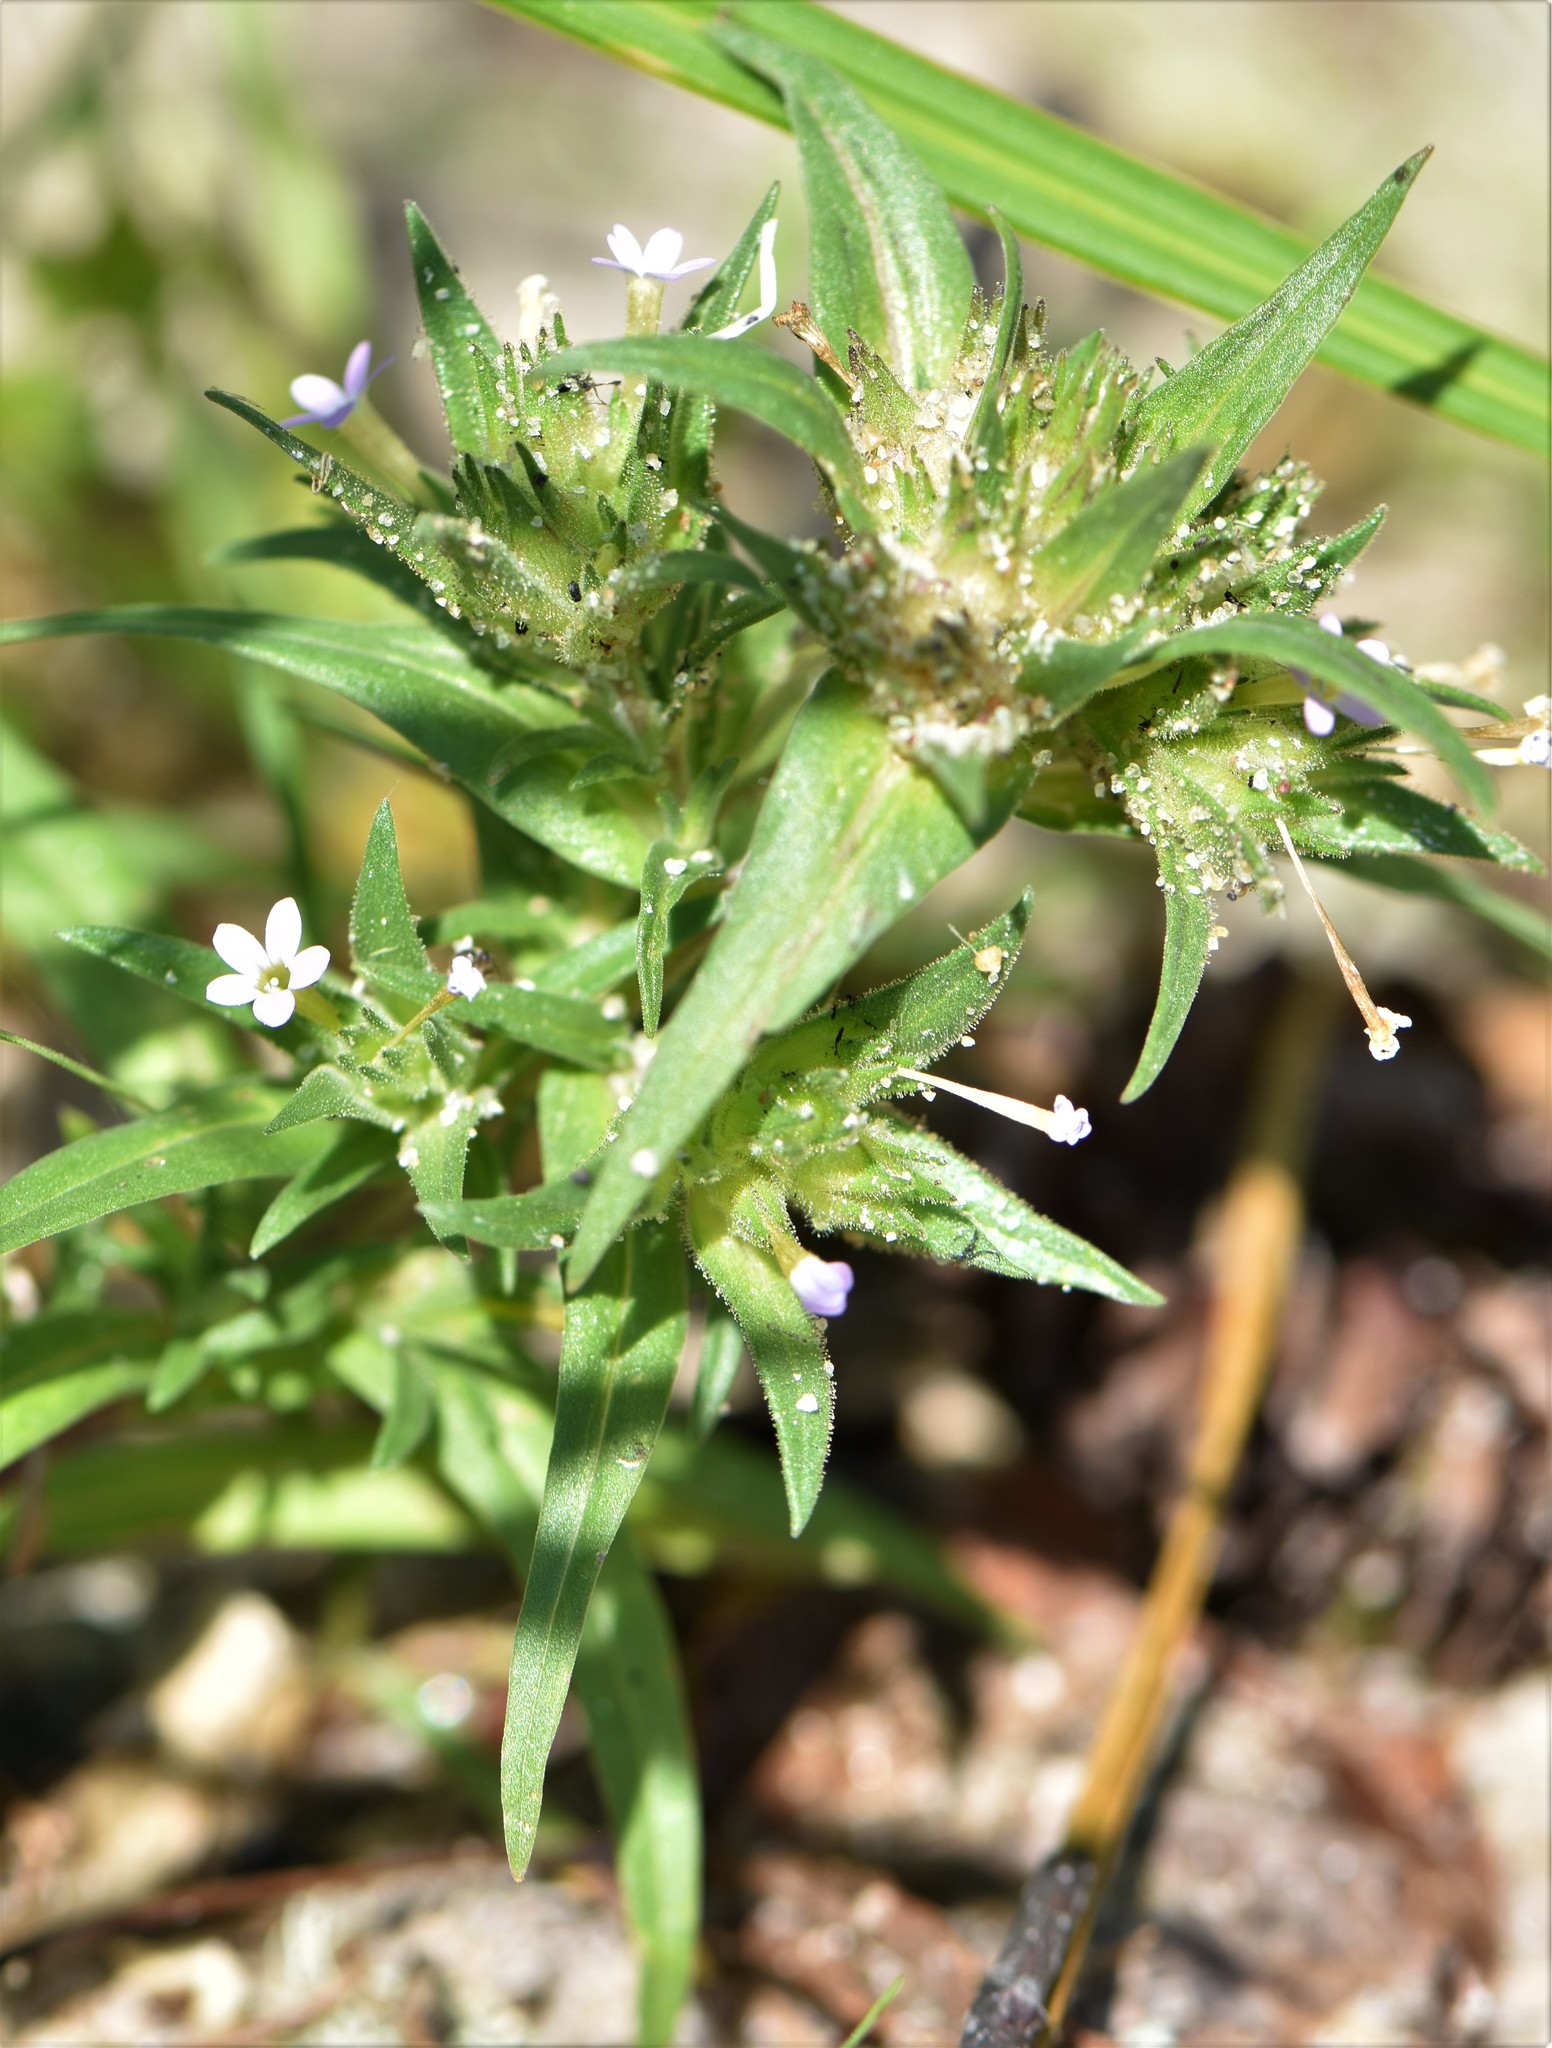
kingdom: Plantae
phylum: Tracheophyta
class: Magnoliopsida
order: Ericales
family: Polemoniaceae
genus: Collomia
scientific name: Collomia linearis
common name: Tiny trumpet
